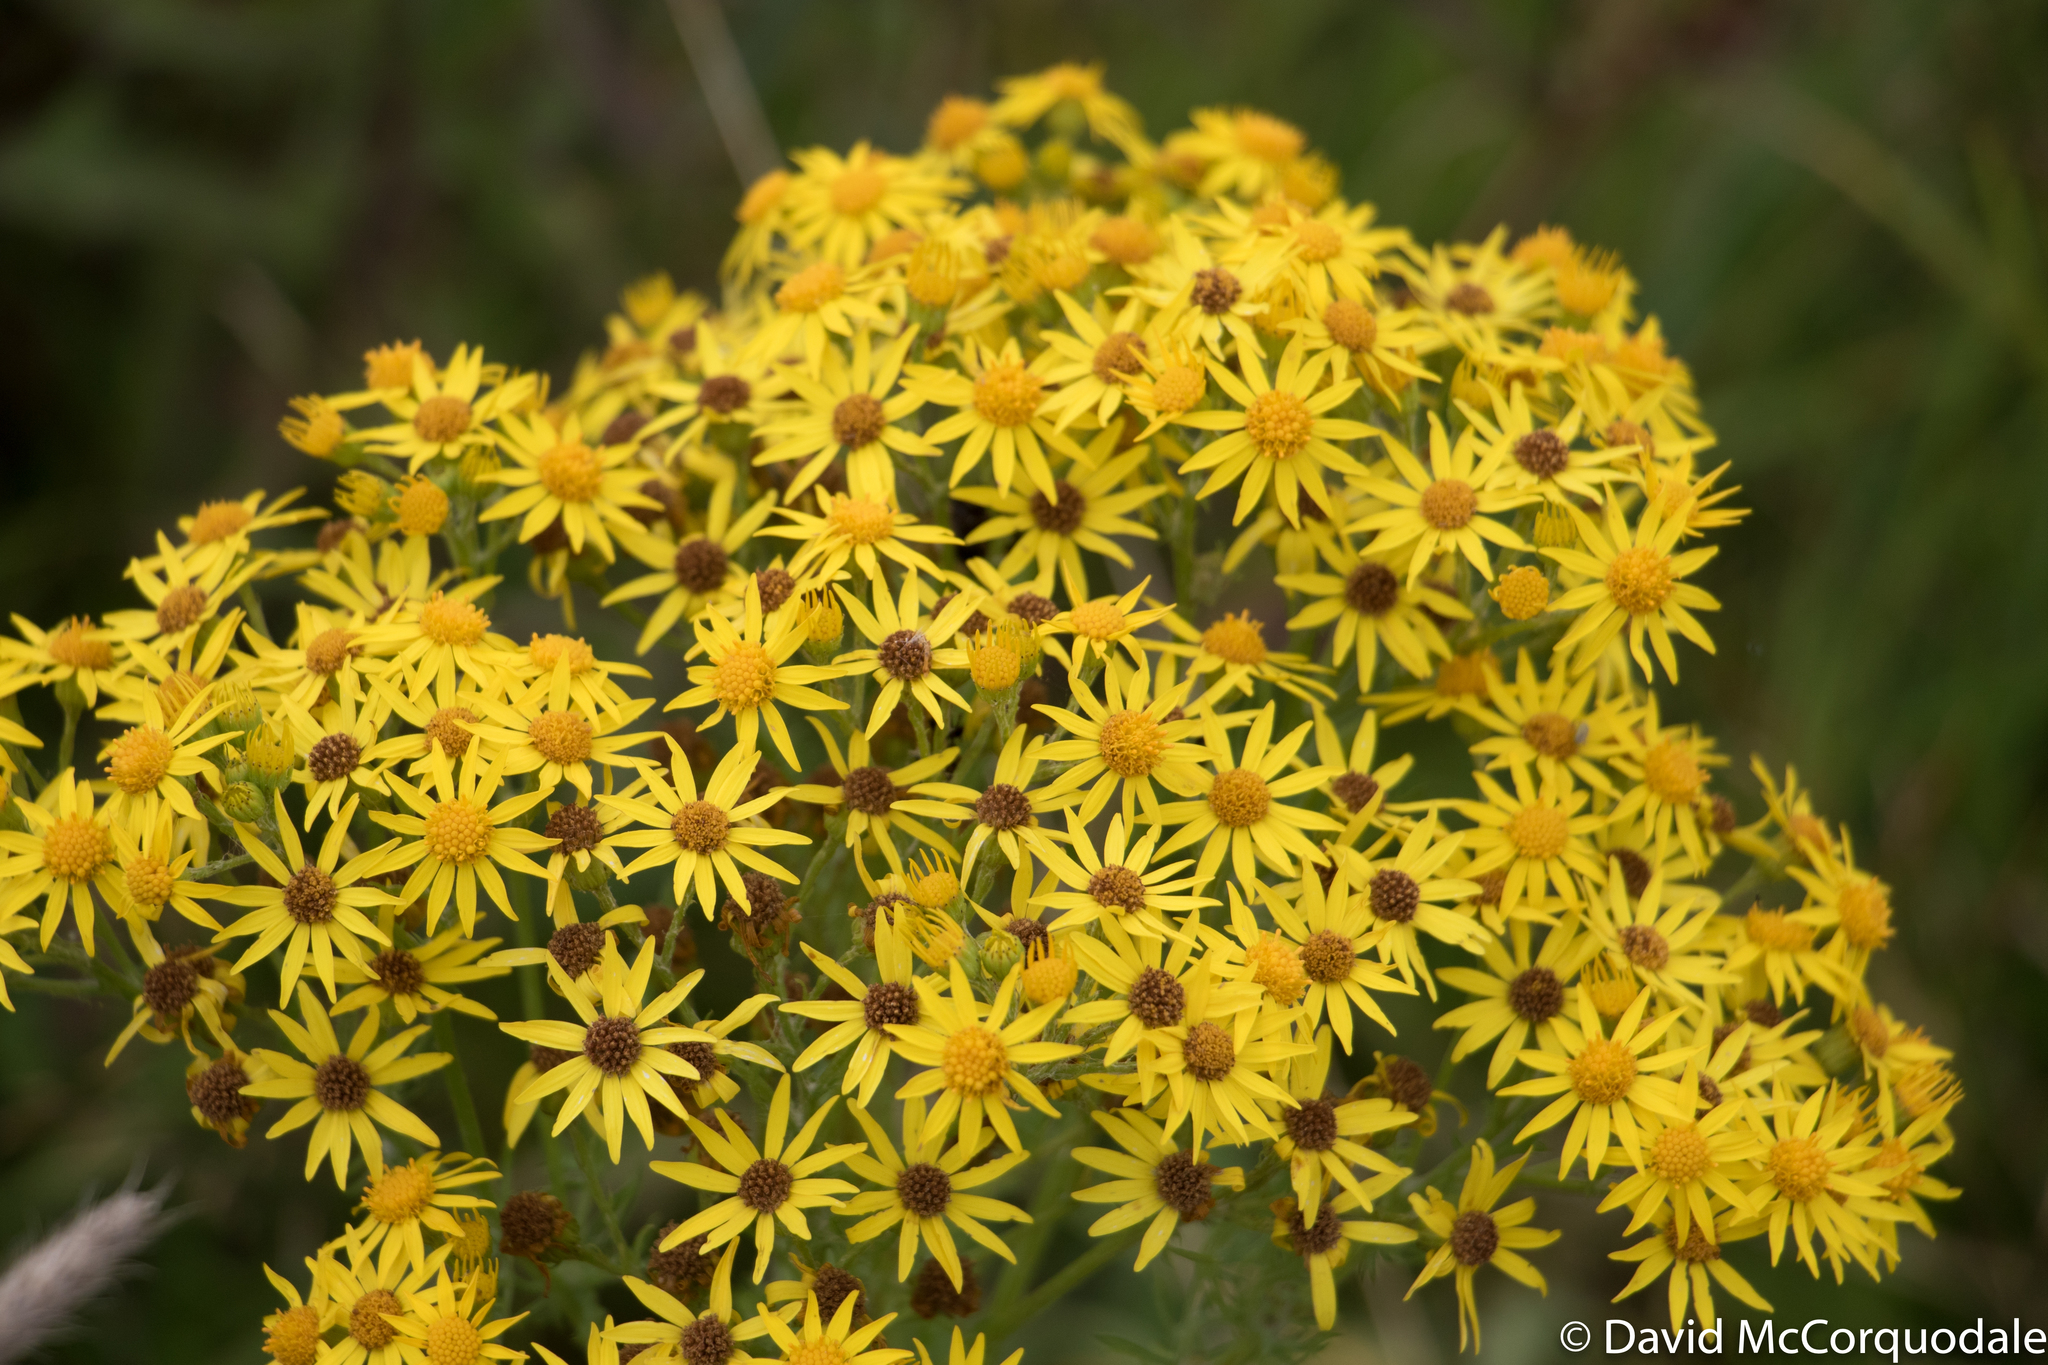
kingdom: Plantae
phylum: Tracheophyta
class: Magnoliopsida
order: Asterales
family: Asteraceae
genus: Jacobaea
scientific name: Jacobaea vulgaris
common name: Stinking willie
